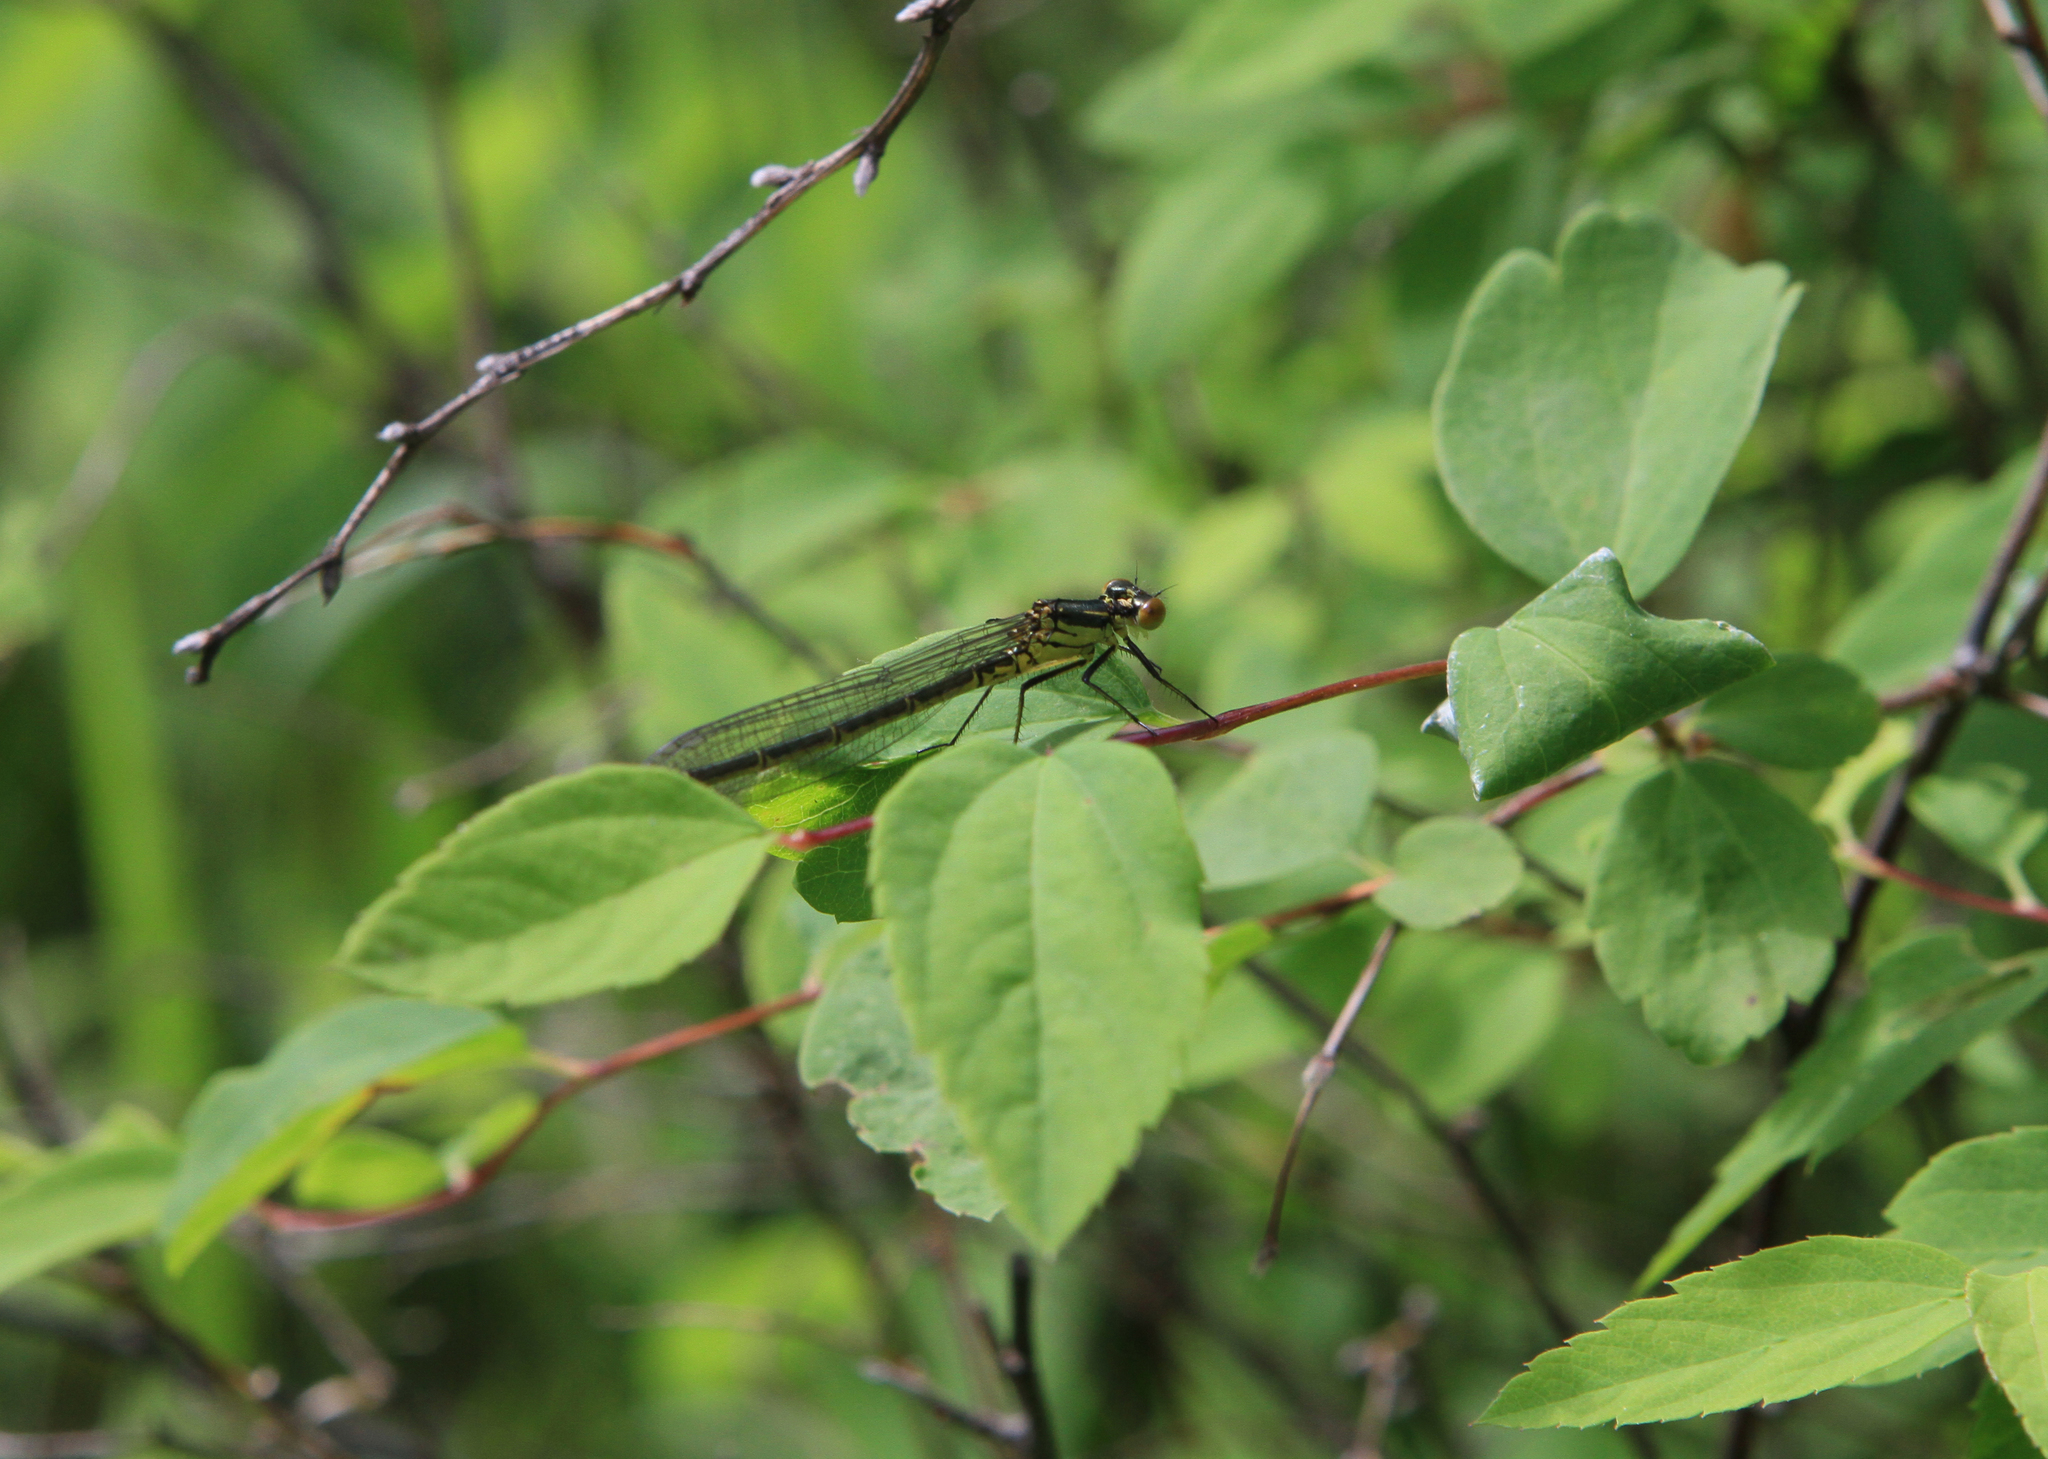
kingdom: Animalia
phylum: Arthropoda
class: Insecta
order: Odonata
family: Coenagrionidae
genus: Erythromma
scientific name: Erythromma najas
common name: Red-eyed damselfly
